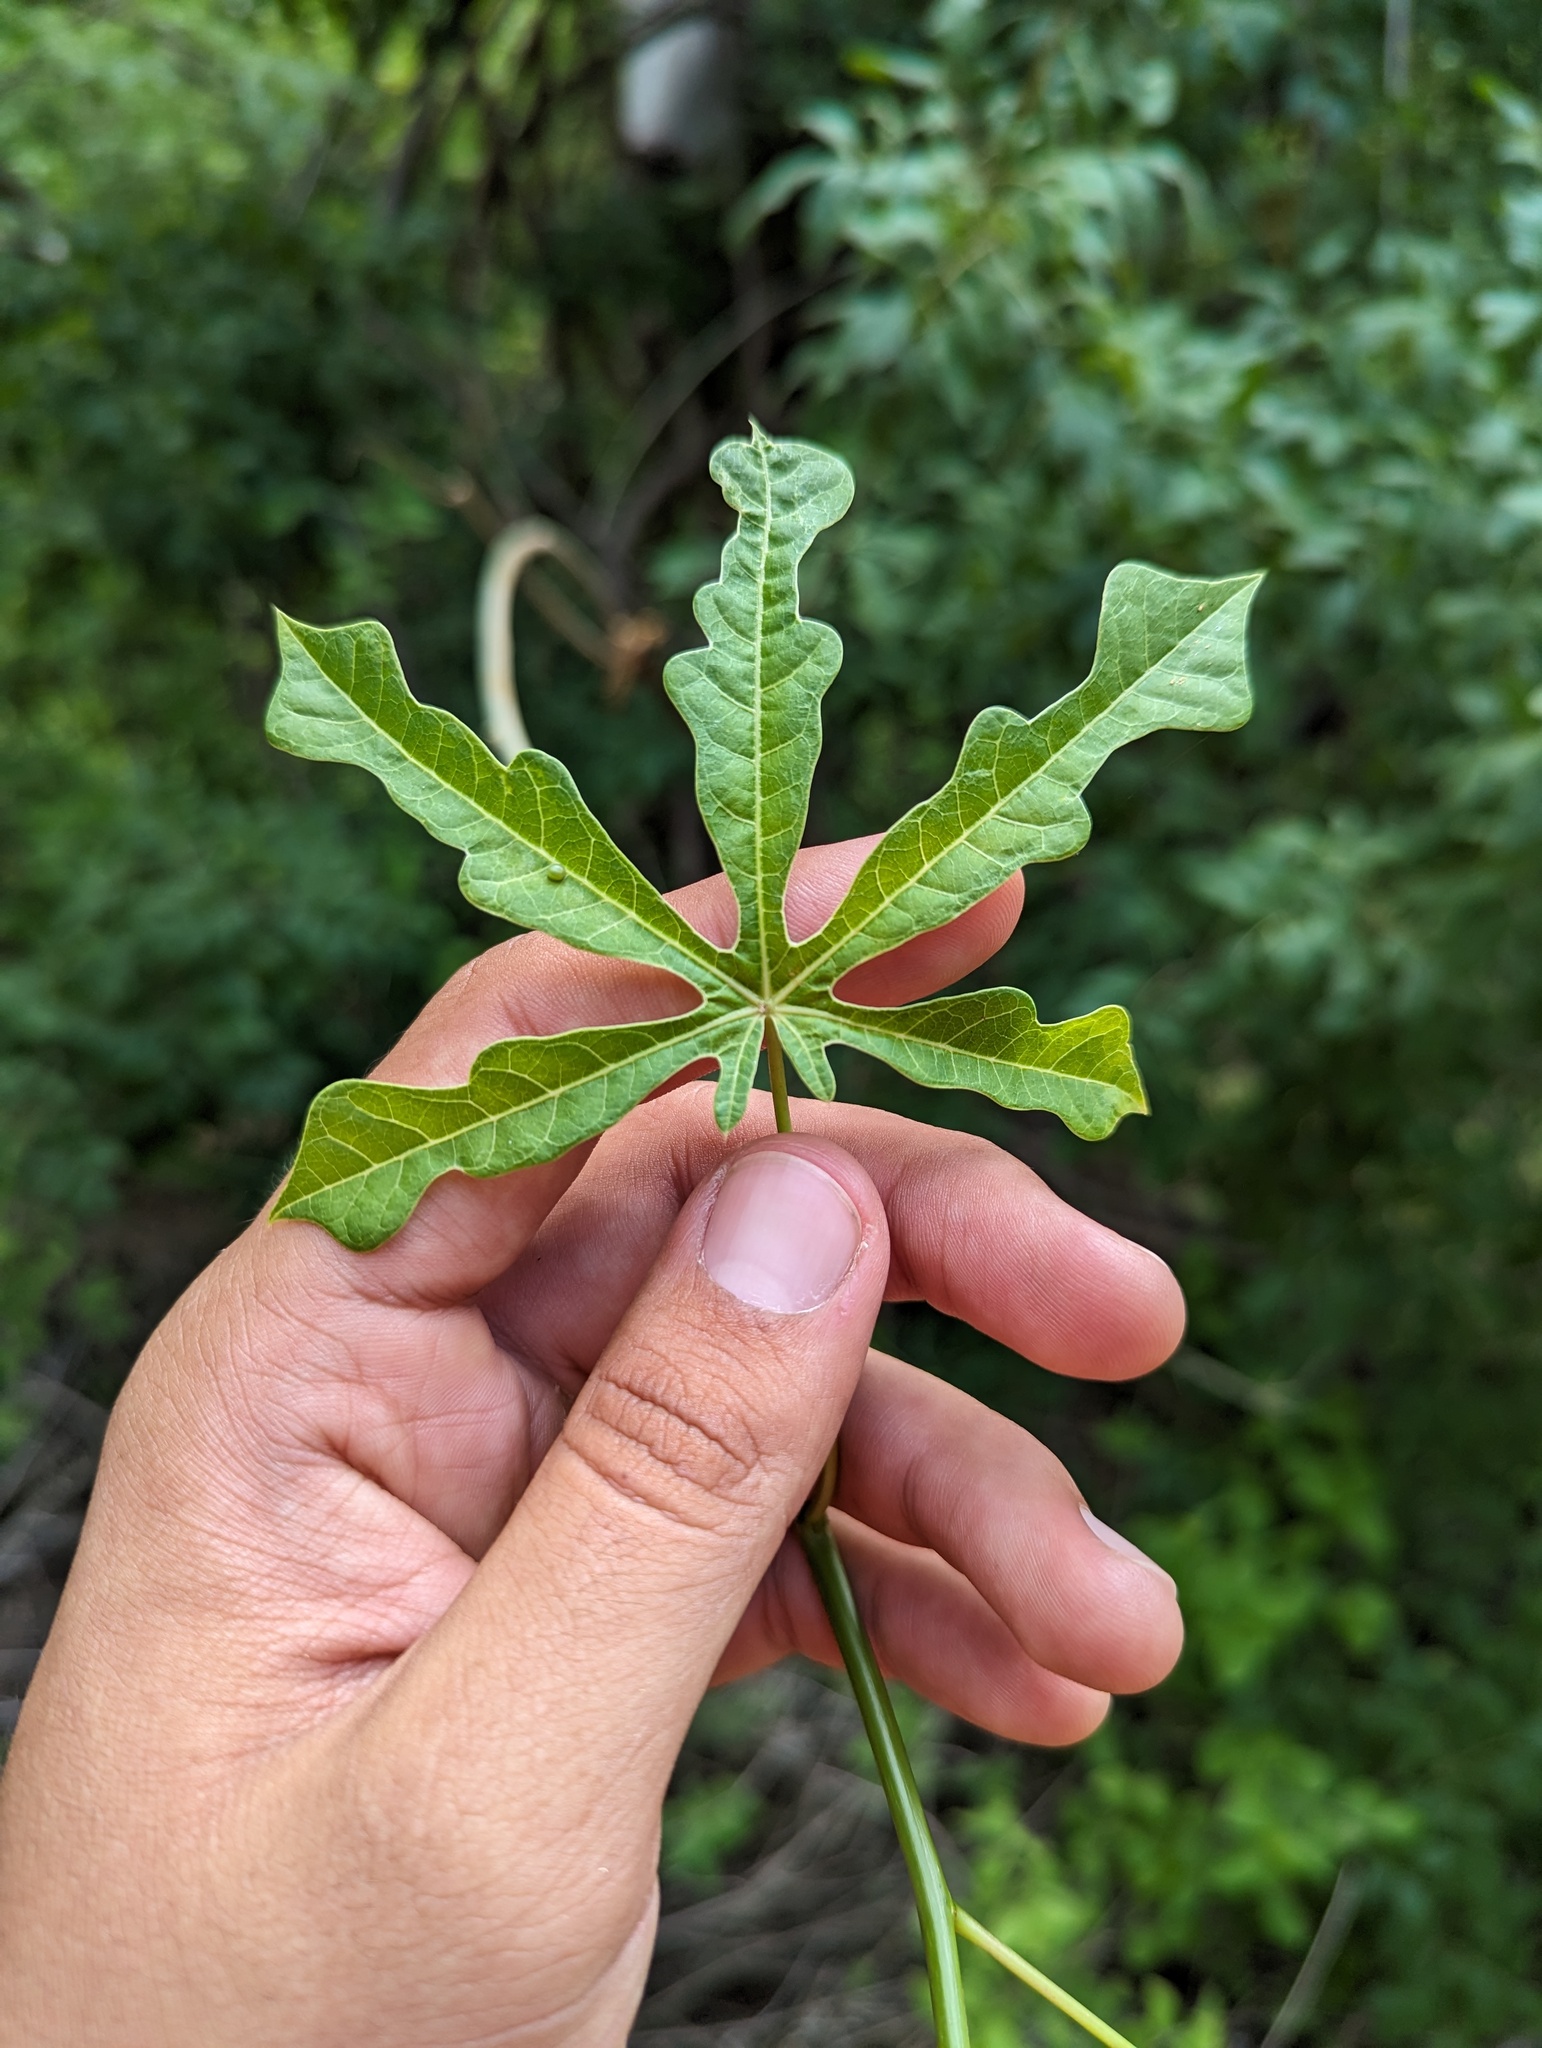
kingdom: Plantae
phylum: Tracheophyta
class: Magnoliopsida
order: Malpighiales
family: Euphorbiaceae
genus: Manihot
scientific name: Manihot chlorosticta
